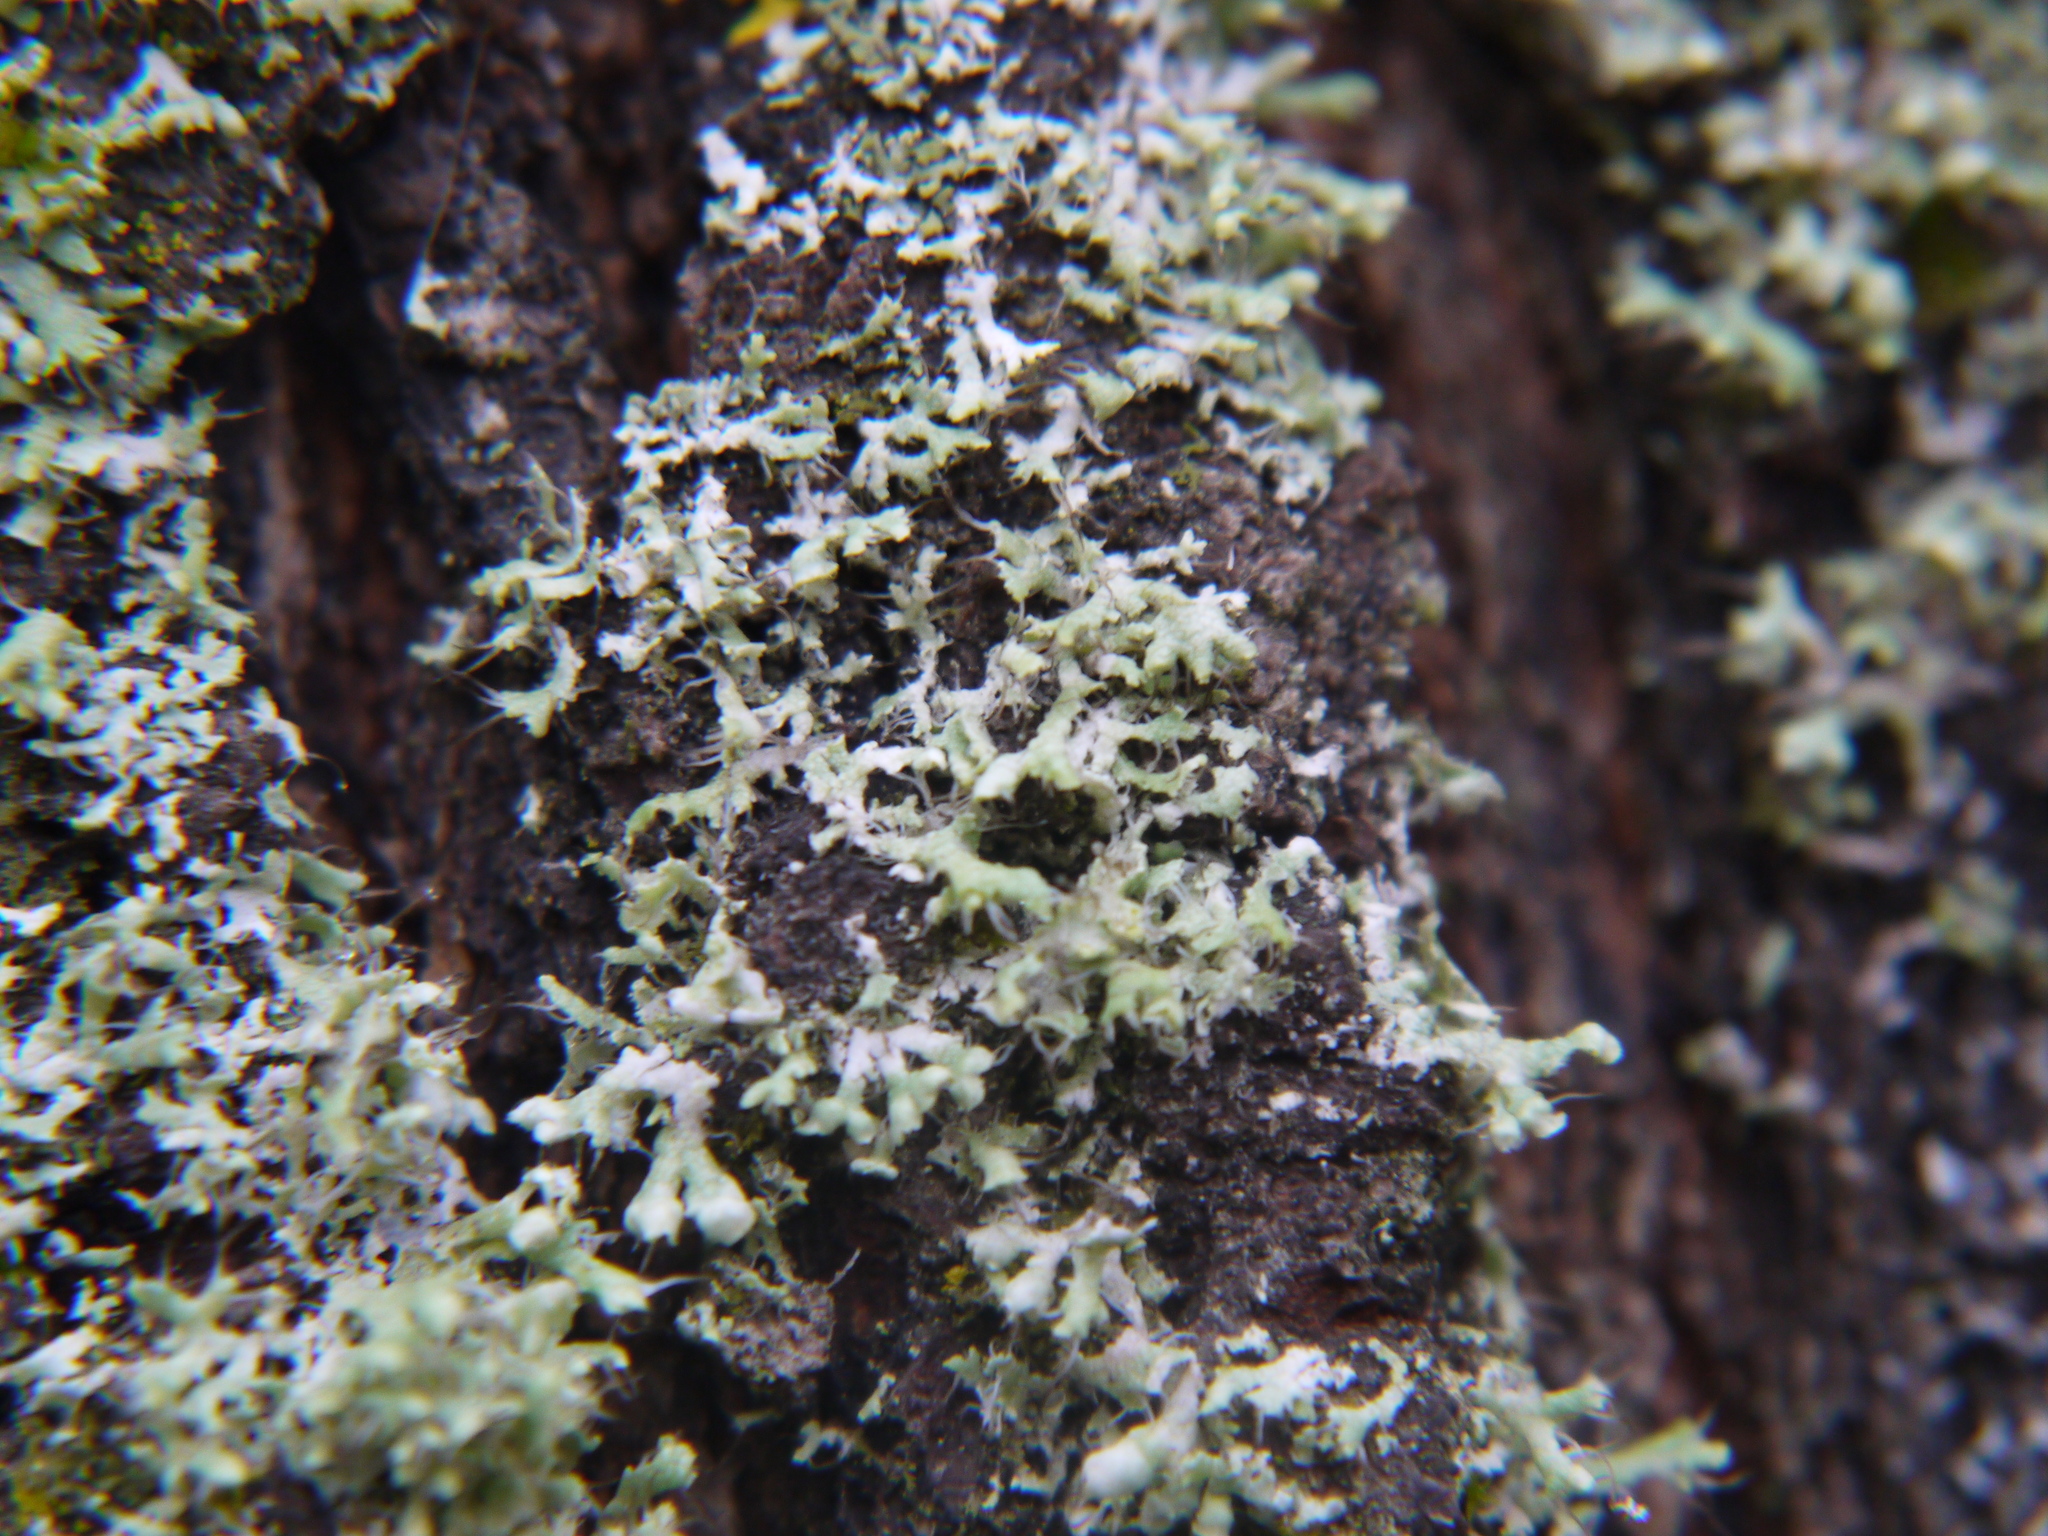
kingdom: Fungi
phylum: Ascomycota
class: Lecanoromycetes
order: Caliciales
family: Physciaceae
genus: Physcia
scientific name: Physcia adscendens
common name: Hooded rosette lichen
